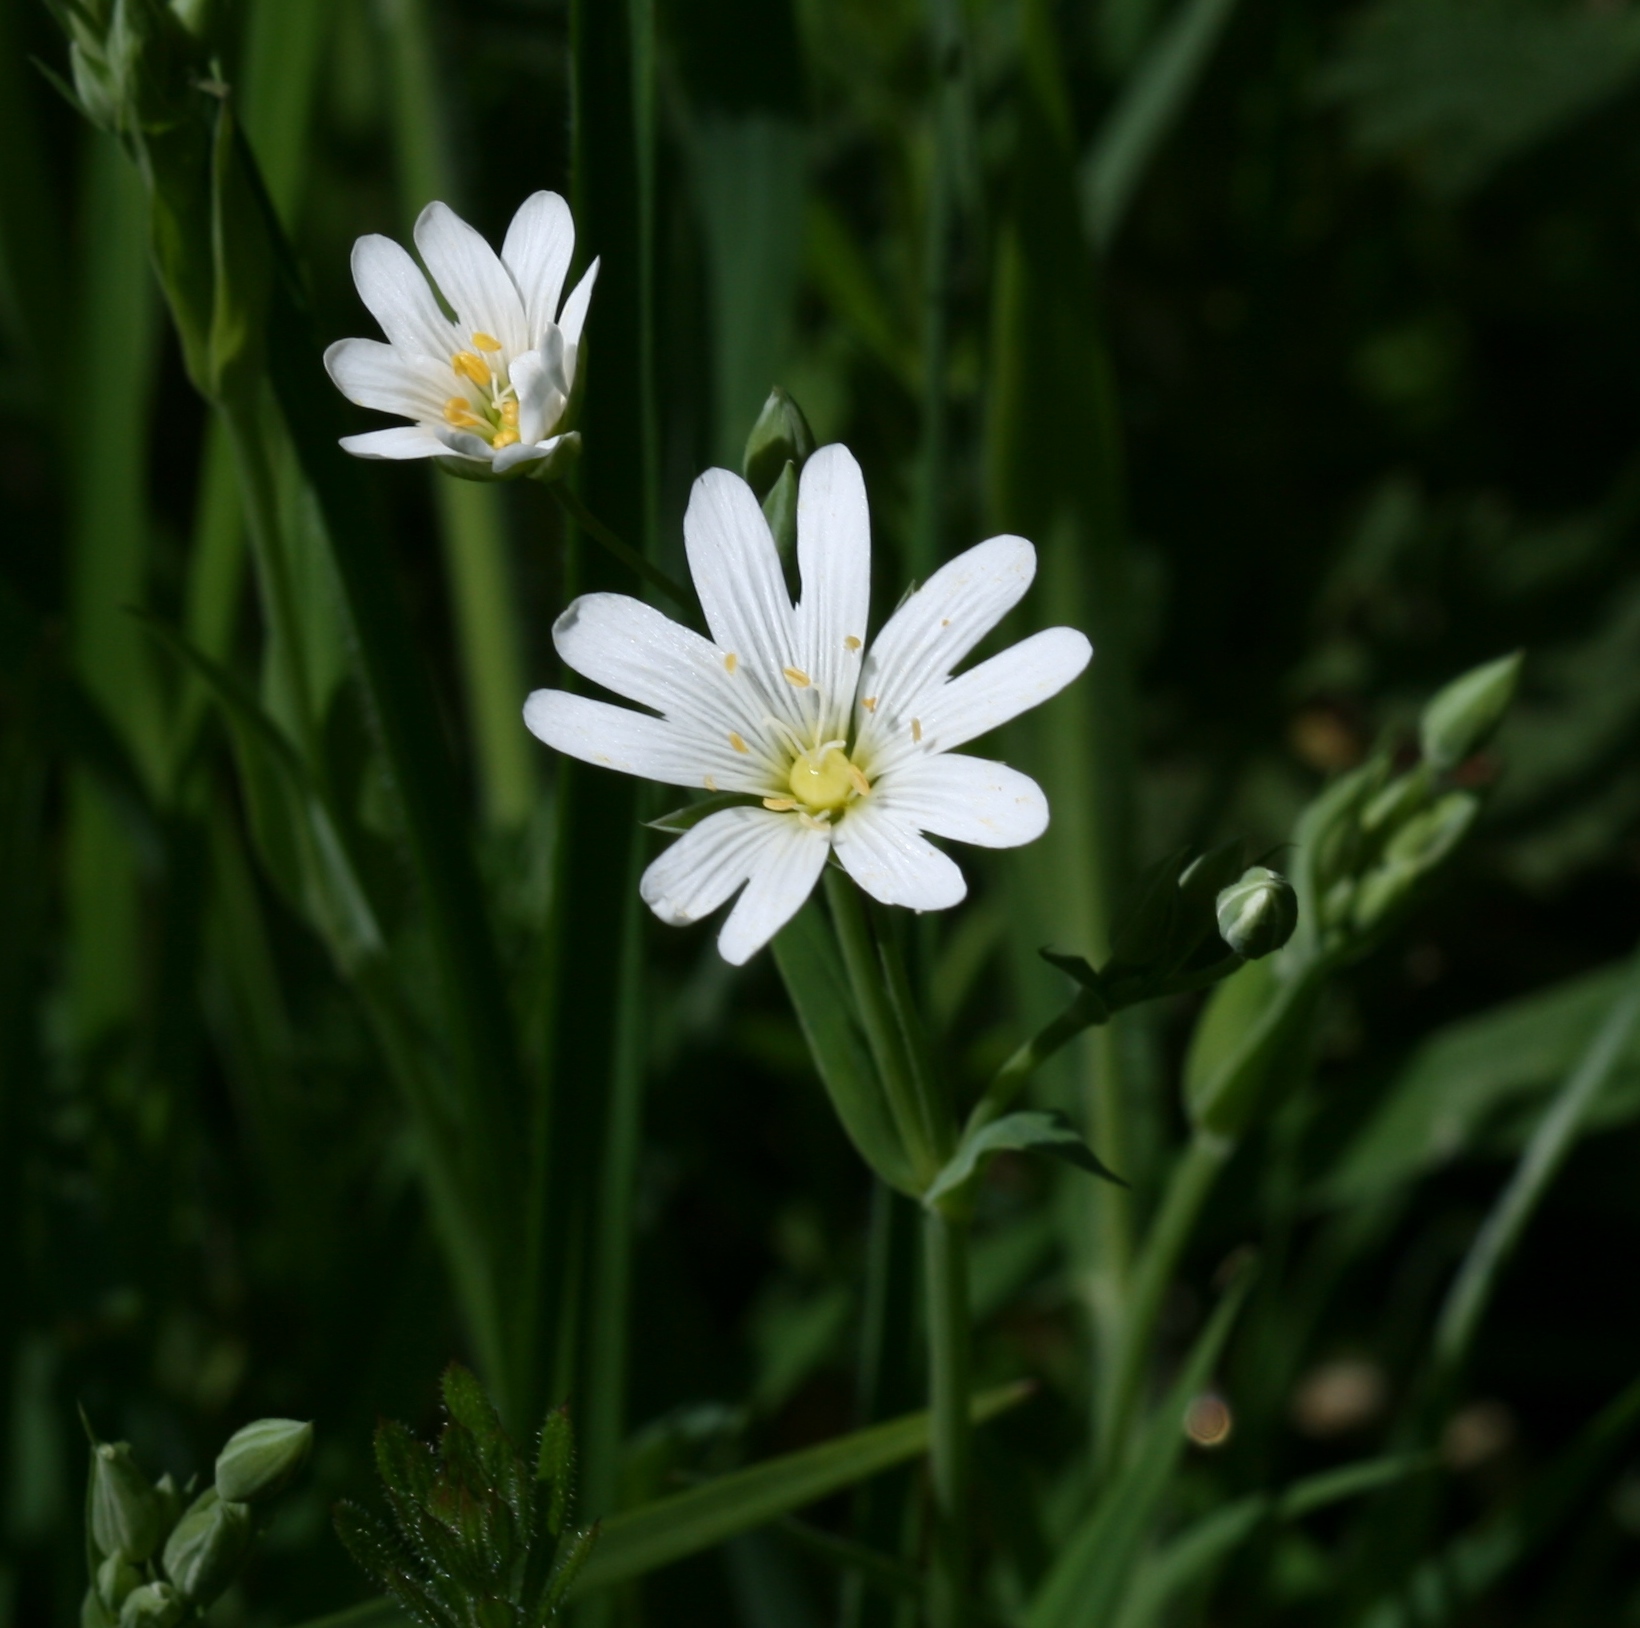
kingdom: Plantae
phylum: Tracheophyta
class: Magnoliopsida
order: Caryophyllales
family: Caryophyllaceae
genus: Rabelera
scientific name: Rabelera holostea
